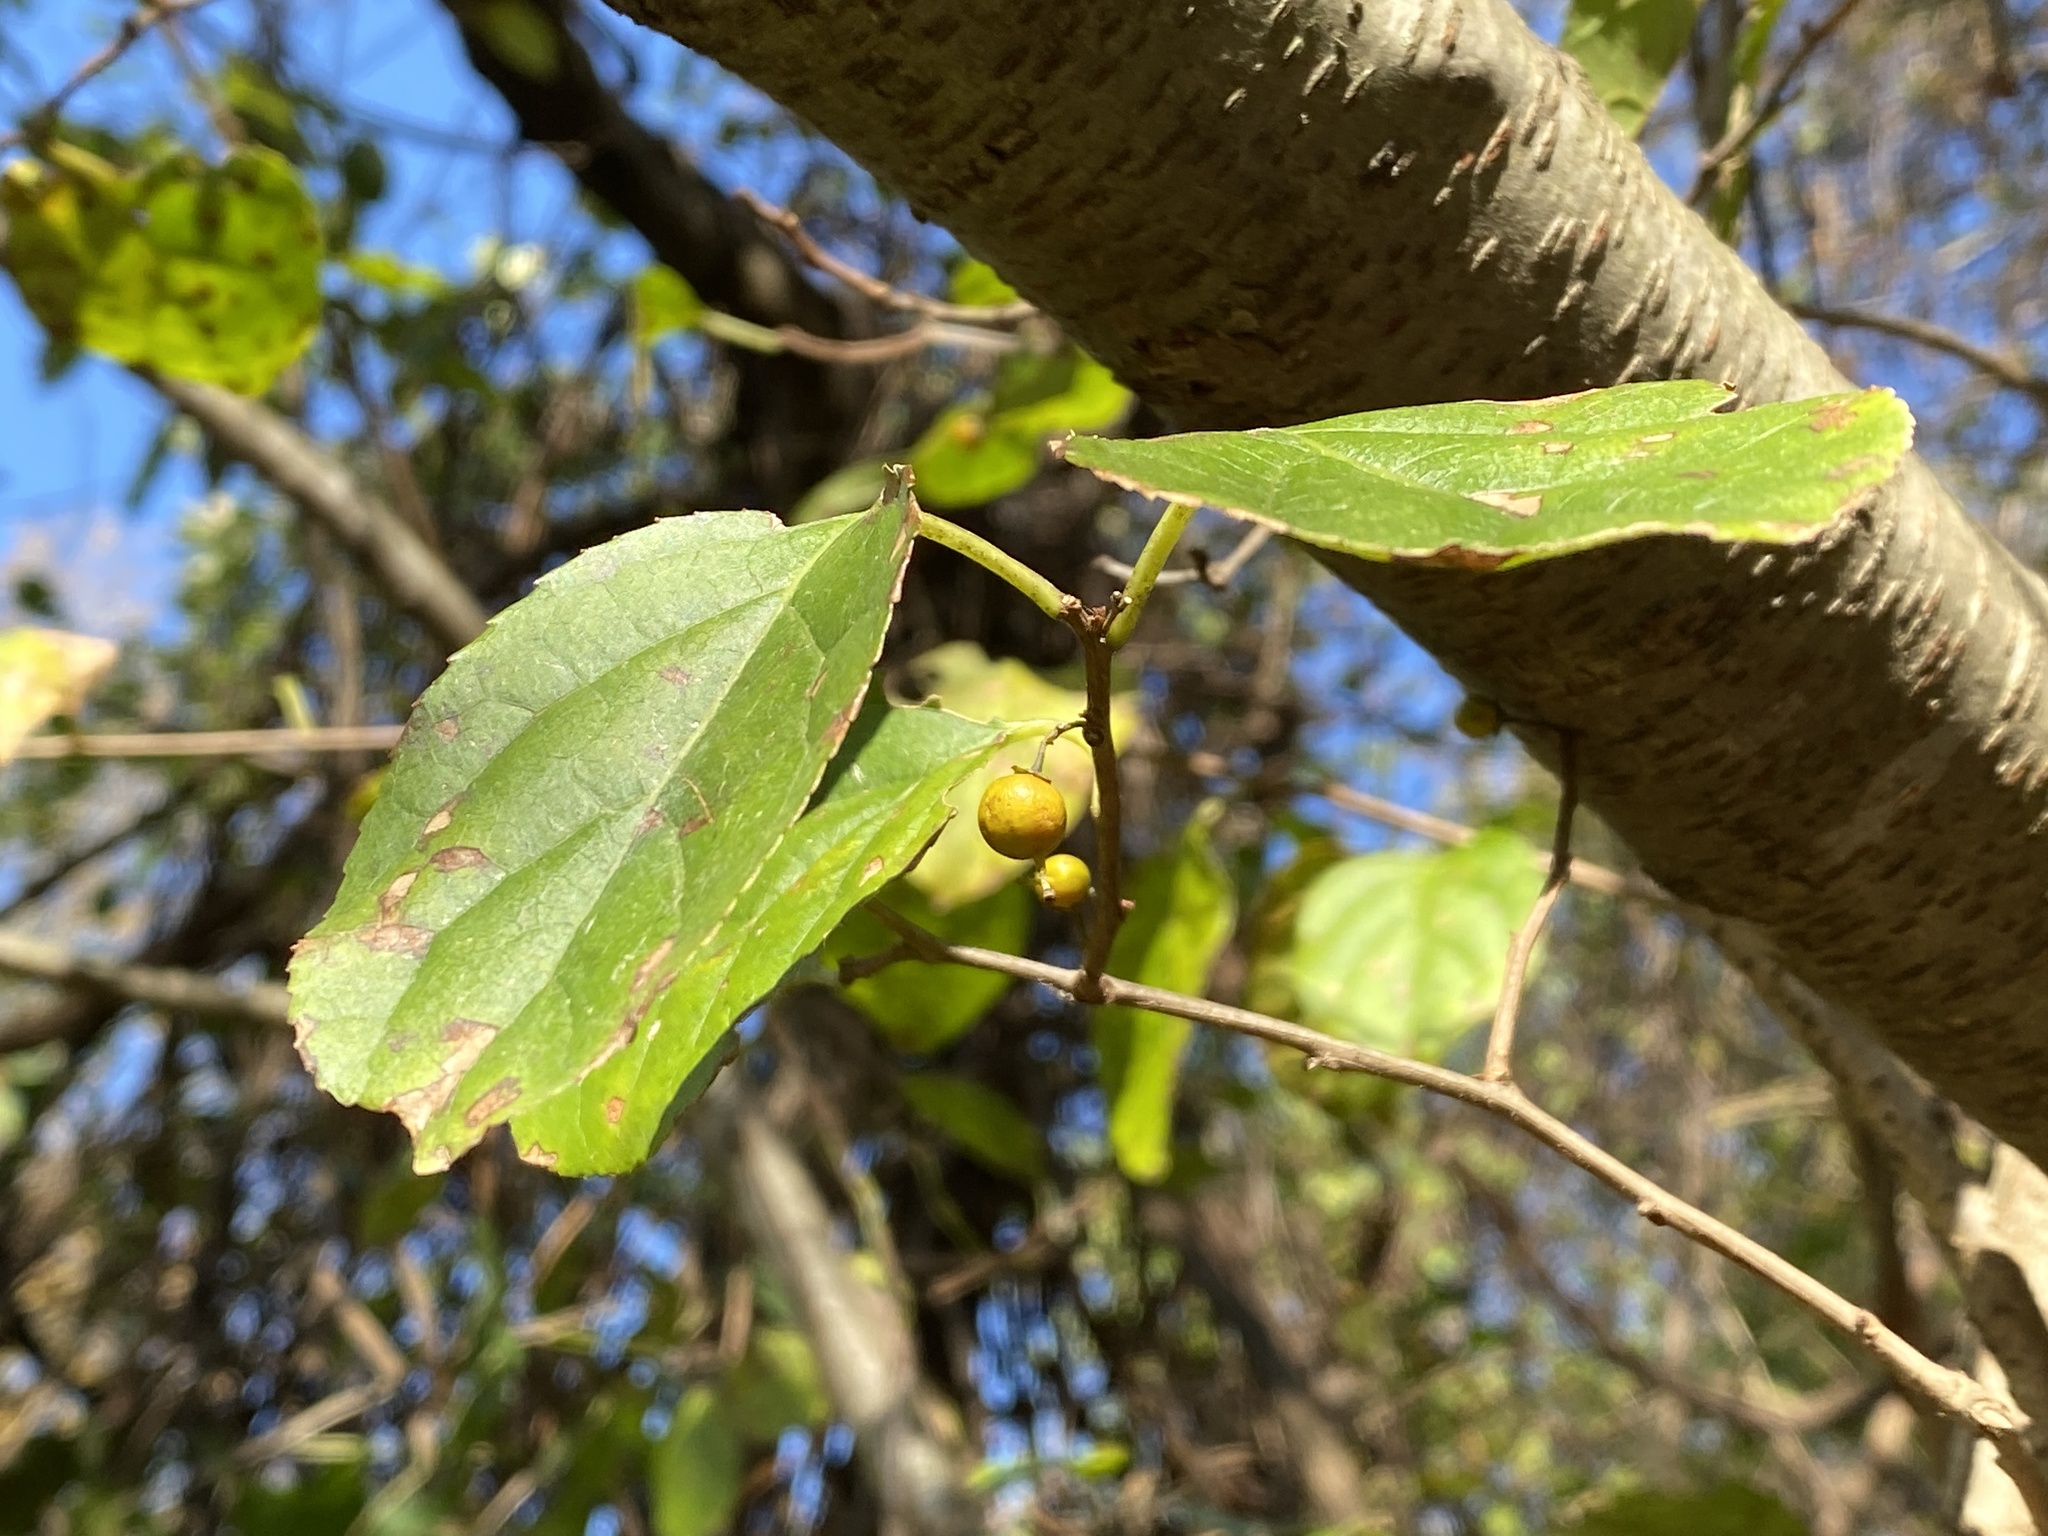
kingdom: Plantae
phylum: Tracheophyta
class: Magnoliopsida
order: Celastrales
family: Celastraceae
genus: Celastrus
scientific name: Celastrus orbiculatus
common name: Oriental bittersweet
